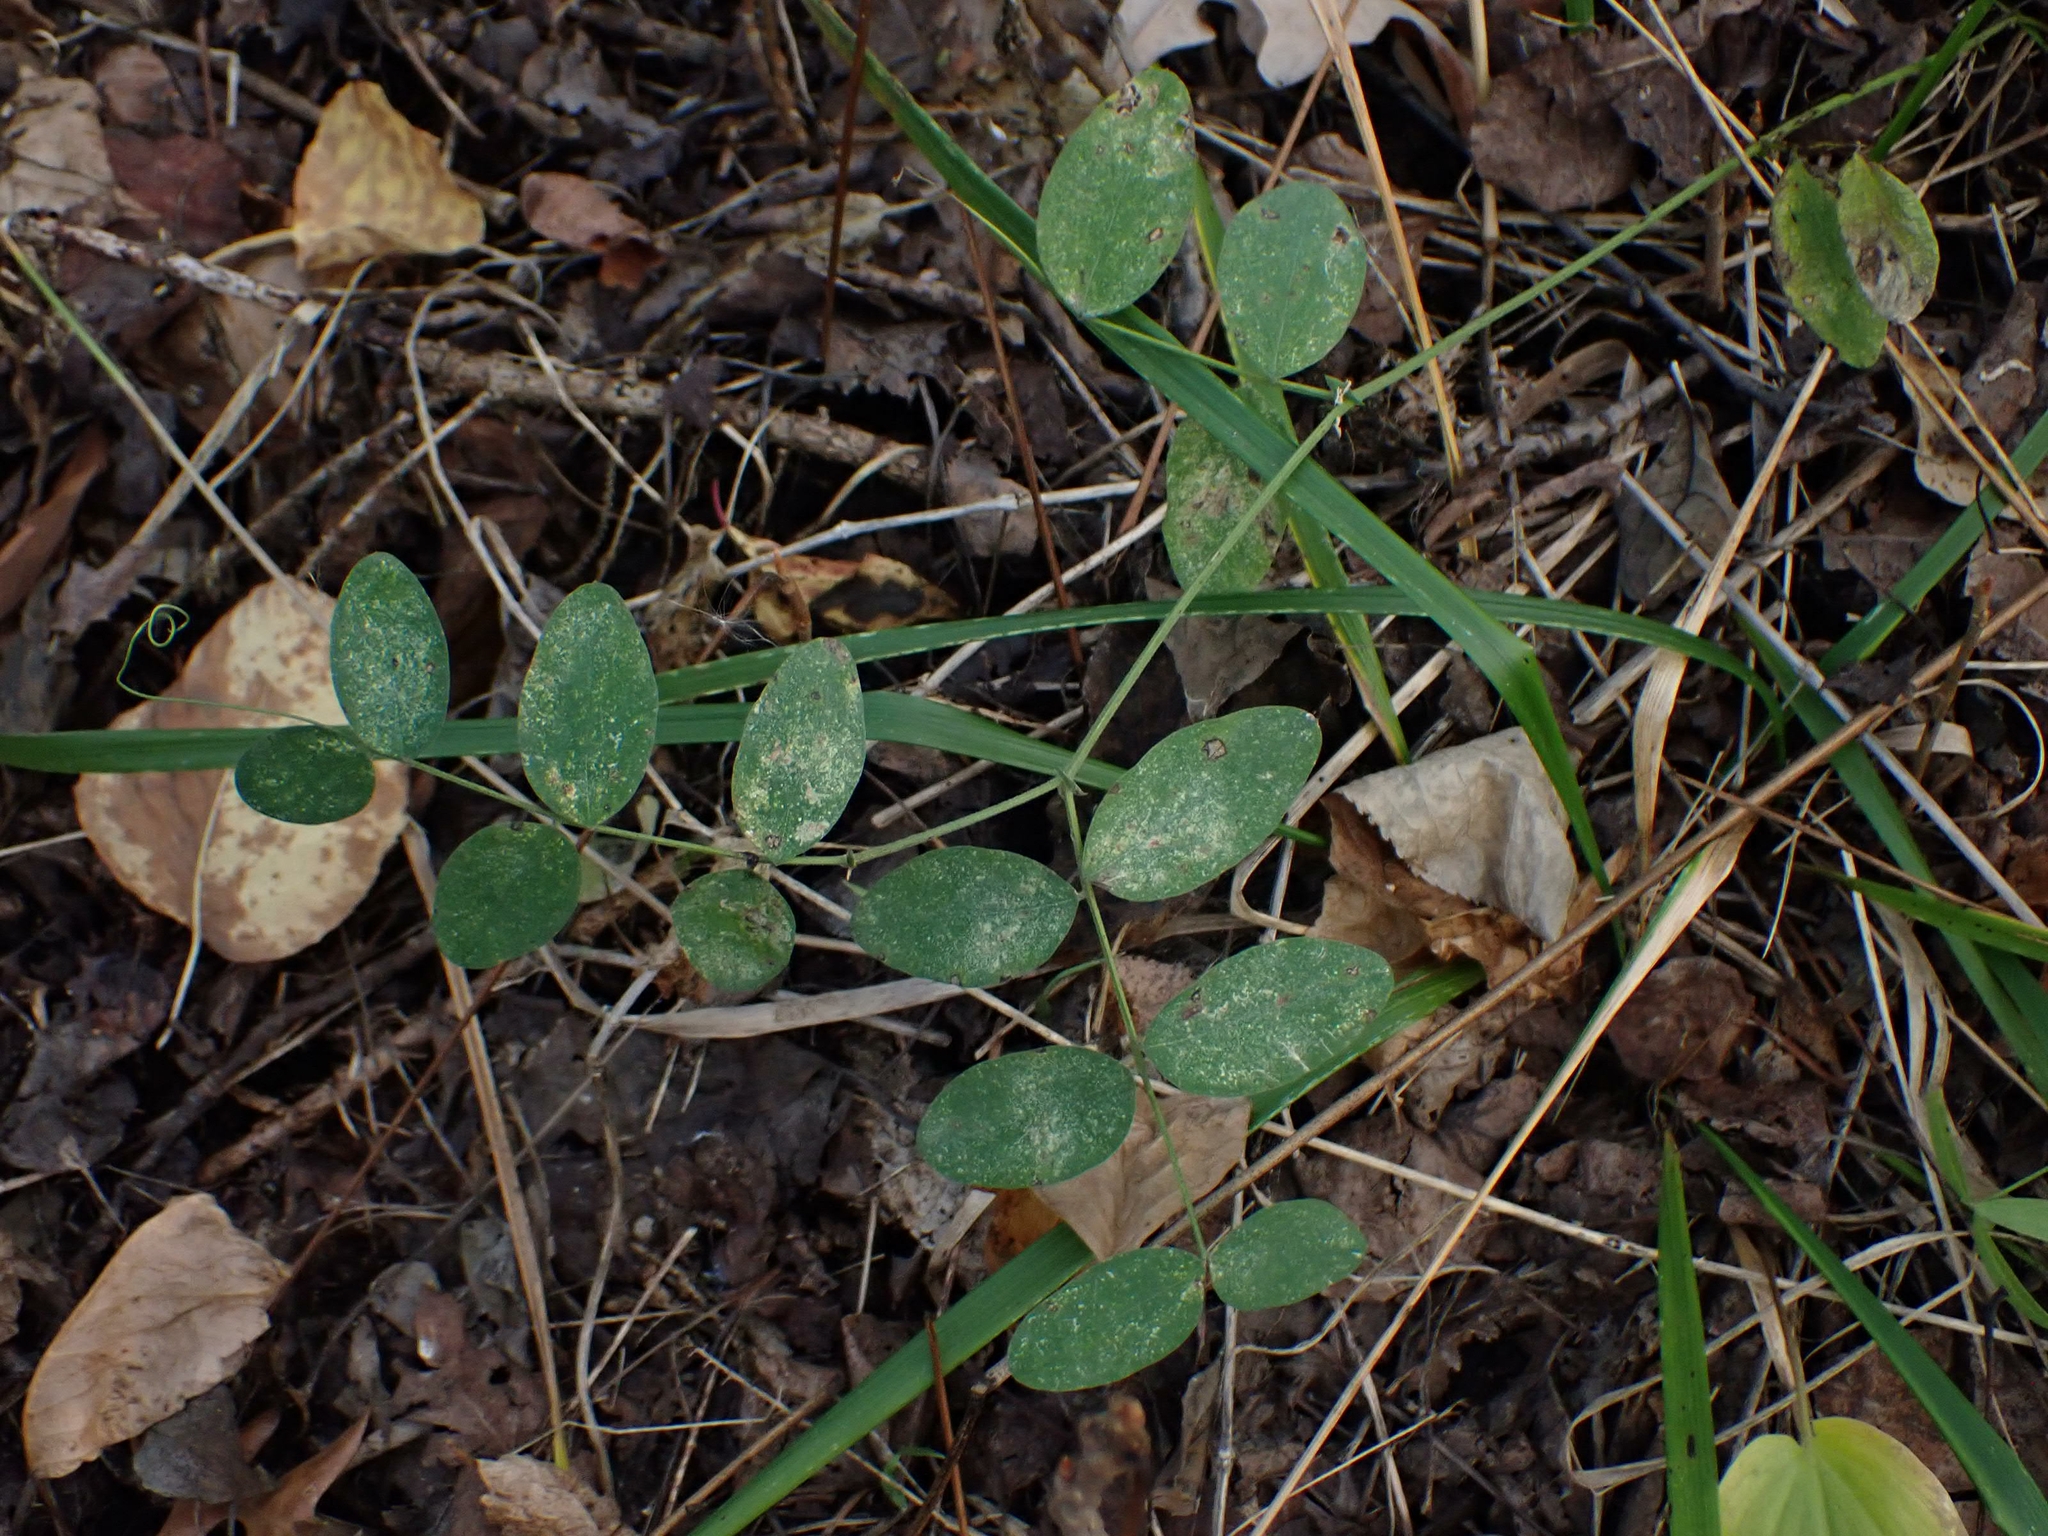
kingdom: Plantae
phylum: Tracheophyta
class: Magnoliopsida
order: Fabales
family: Fabaceae
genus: Lathyrus
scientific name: Lathyrus ochroleucus
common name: Pale vetchling
